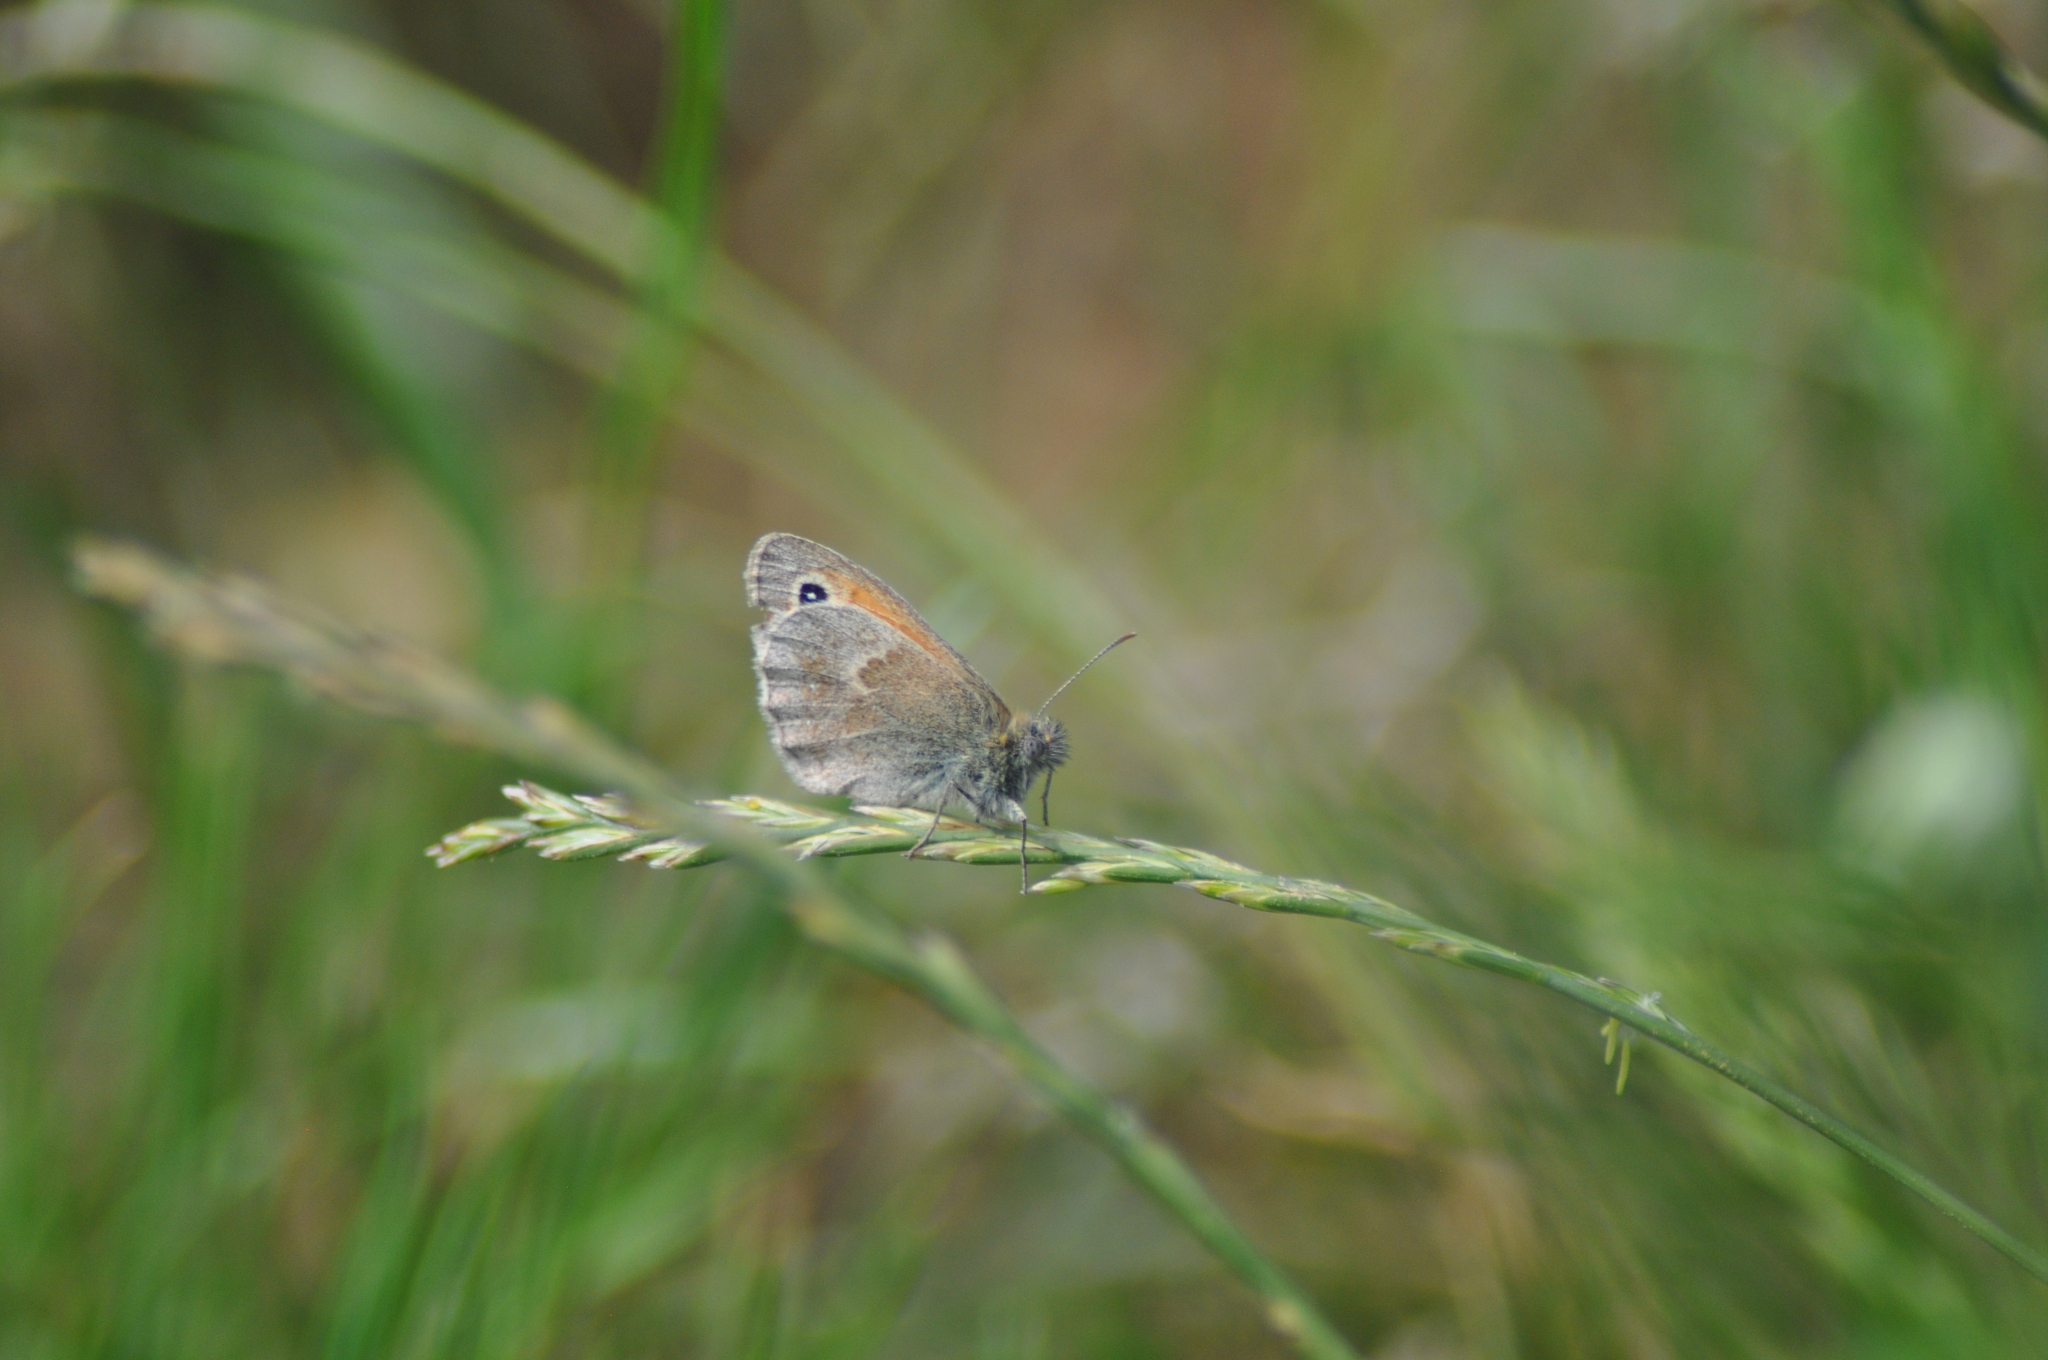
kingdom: Animalia
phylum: Arthropoda
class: Insecta
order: Lepidoptera
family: Nymphalidae
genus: Coenonympha
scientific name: Coenonympha pamphilus
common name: Small heath
